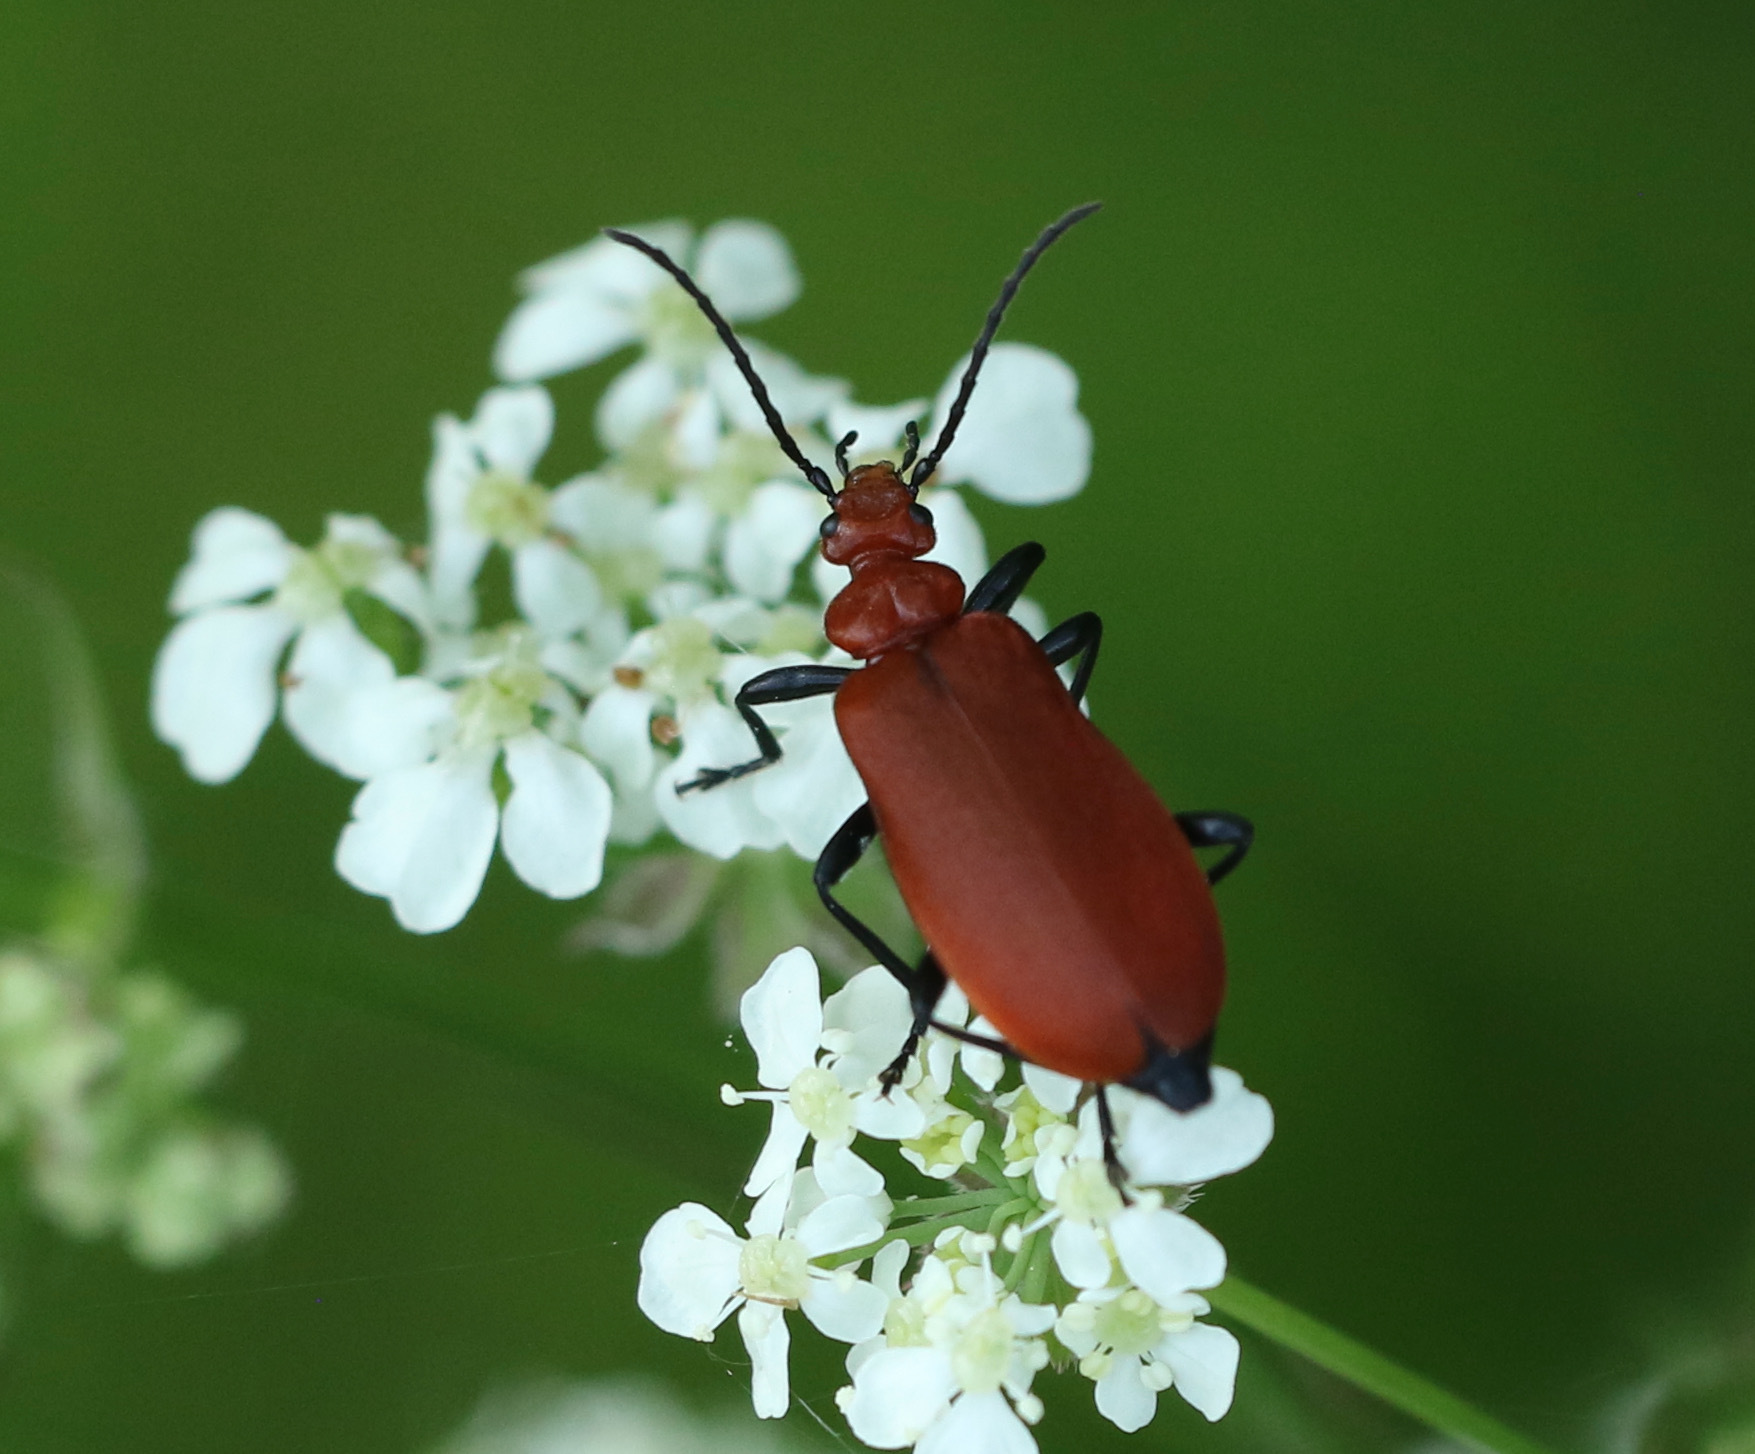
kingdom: Animalia
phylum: Arthropoda
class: Insecta
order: Coleoptera
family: Pyrochroidae
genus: Pyrochroa
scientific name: Pyrochroa serraticornis
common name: Red-headed cardinal beetle
